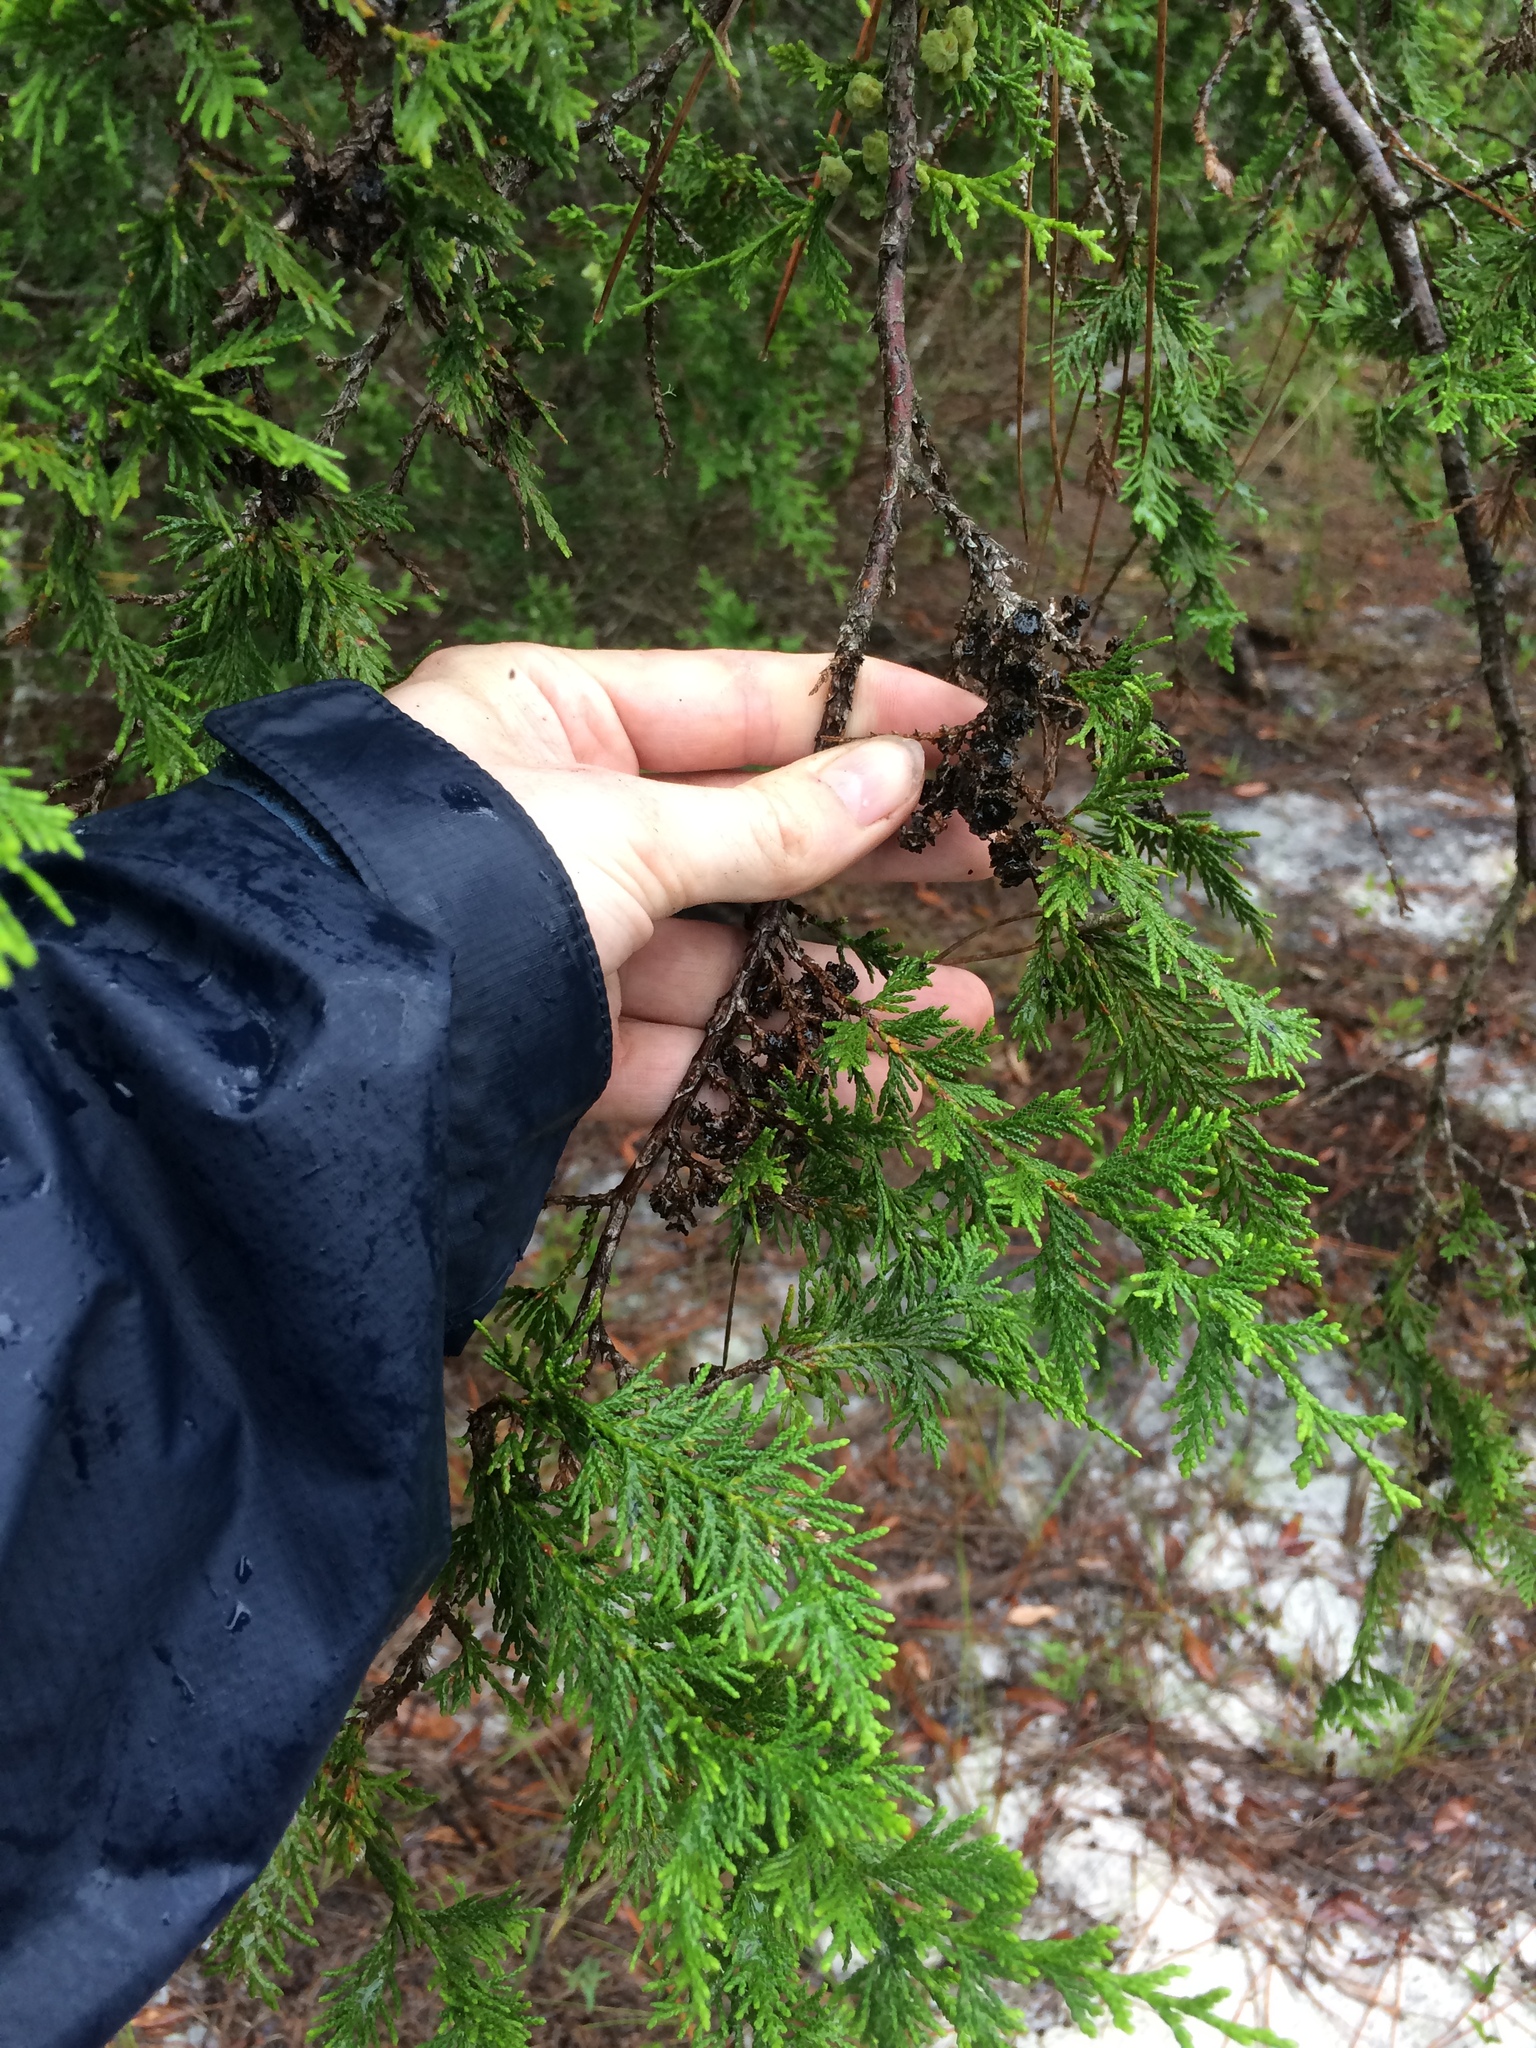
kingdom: Plantae
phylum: Tracheophyta
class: Pinopsida
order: Pinales
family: Cupressaceae
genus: Chamaecyparis
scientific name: Chamaecyparis thyoides
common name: Atlantic white cedar
